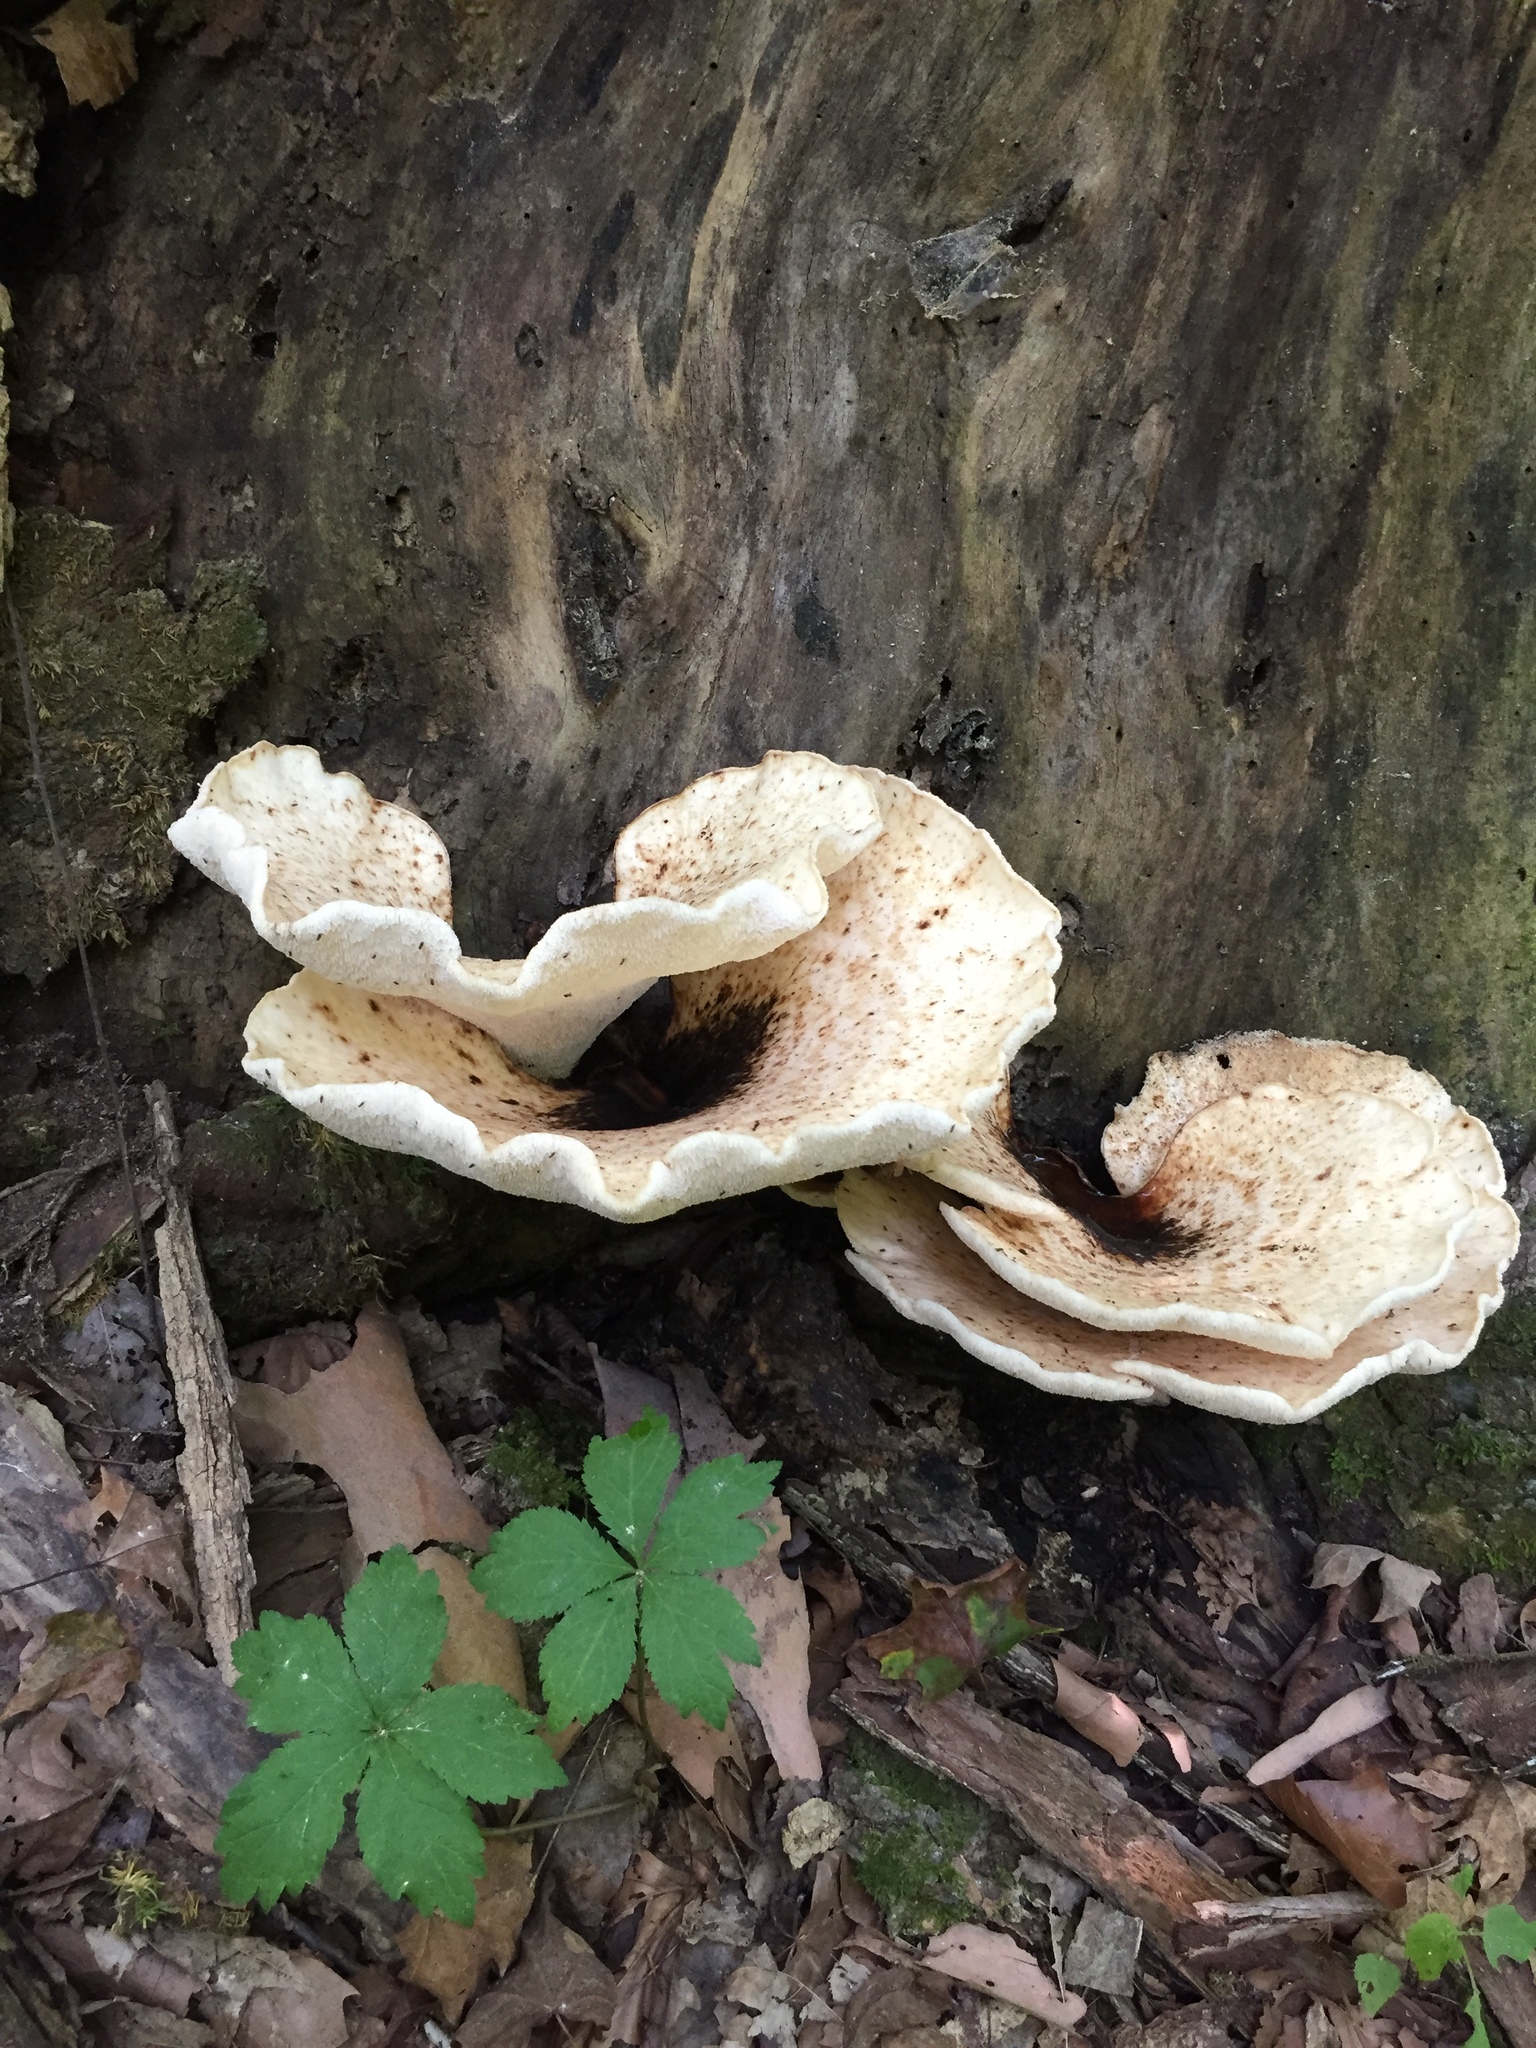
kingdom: Fungi
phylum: Basidiomycota
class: Agaricomycetes
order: Polyporales
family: Polyporaceae
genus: Cerioporus
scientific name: Cerioporus squamosus
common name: Dryad's saddle
